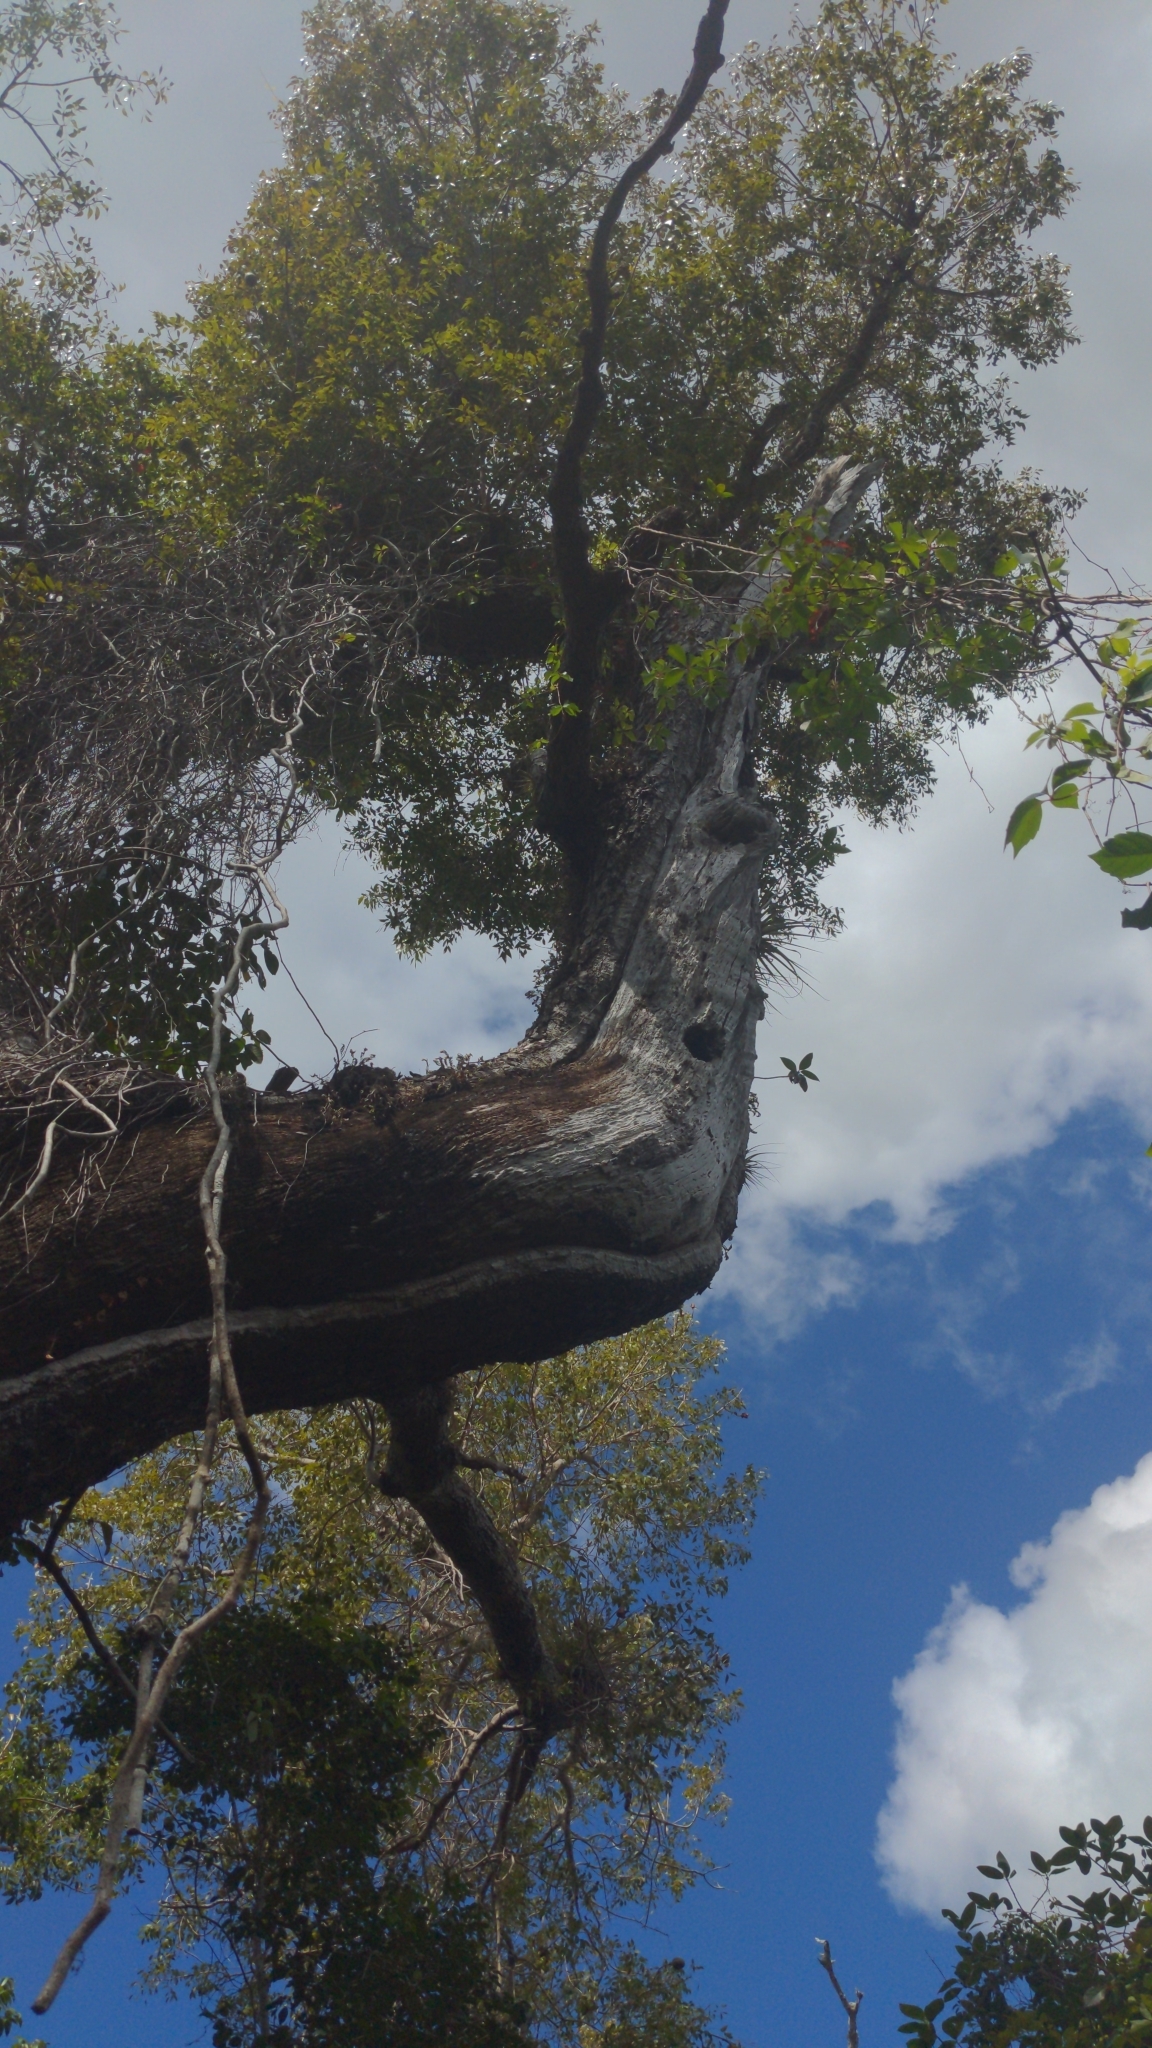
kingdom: Plantae
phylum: Tracheophyta
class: Magnoliopsida
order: Sapindales
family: Meliaceae
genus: Swietenia
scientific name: Swietenia mahagoni
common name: West indian mahogany
